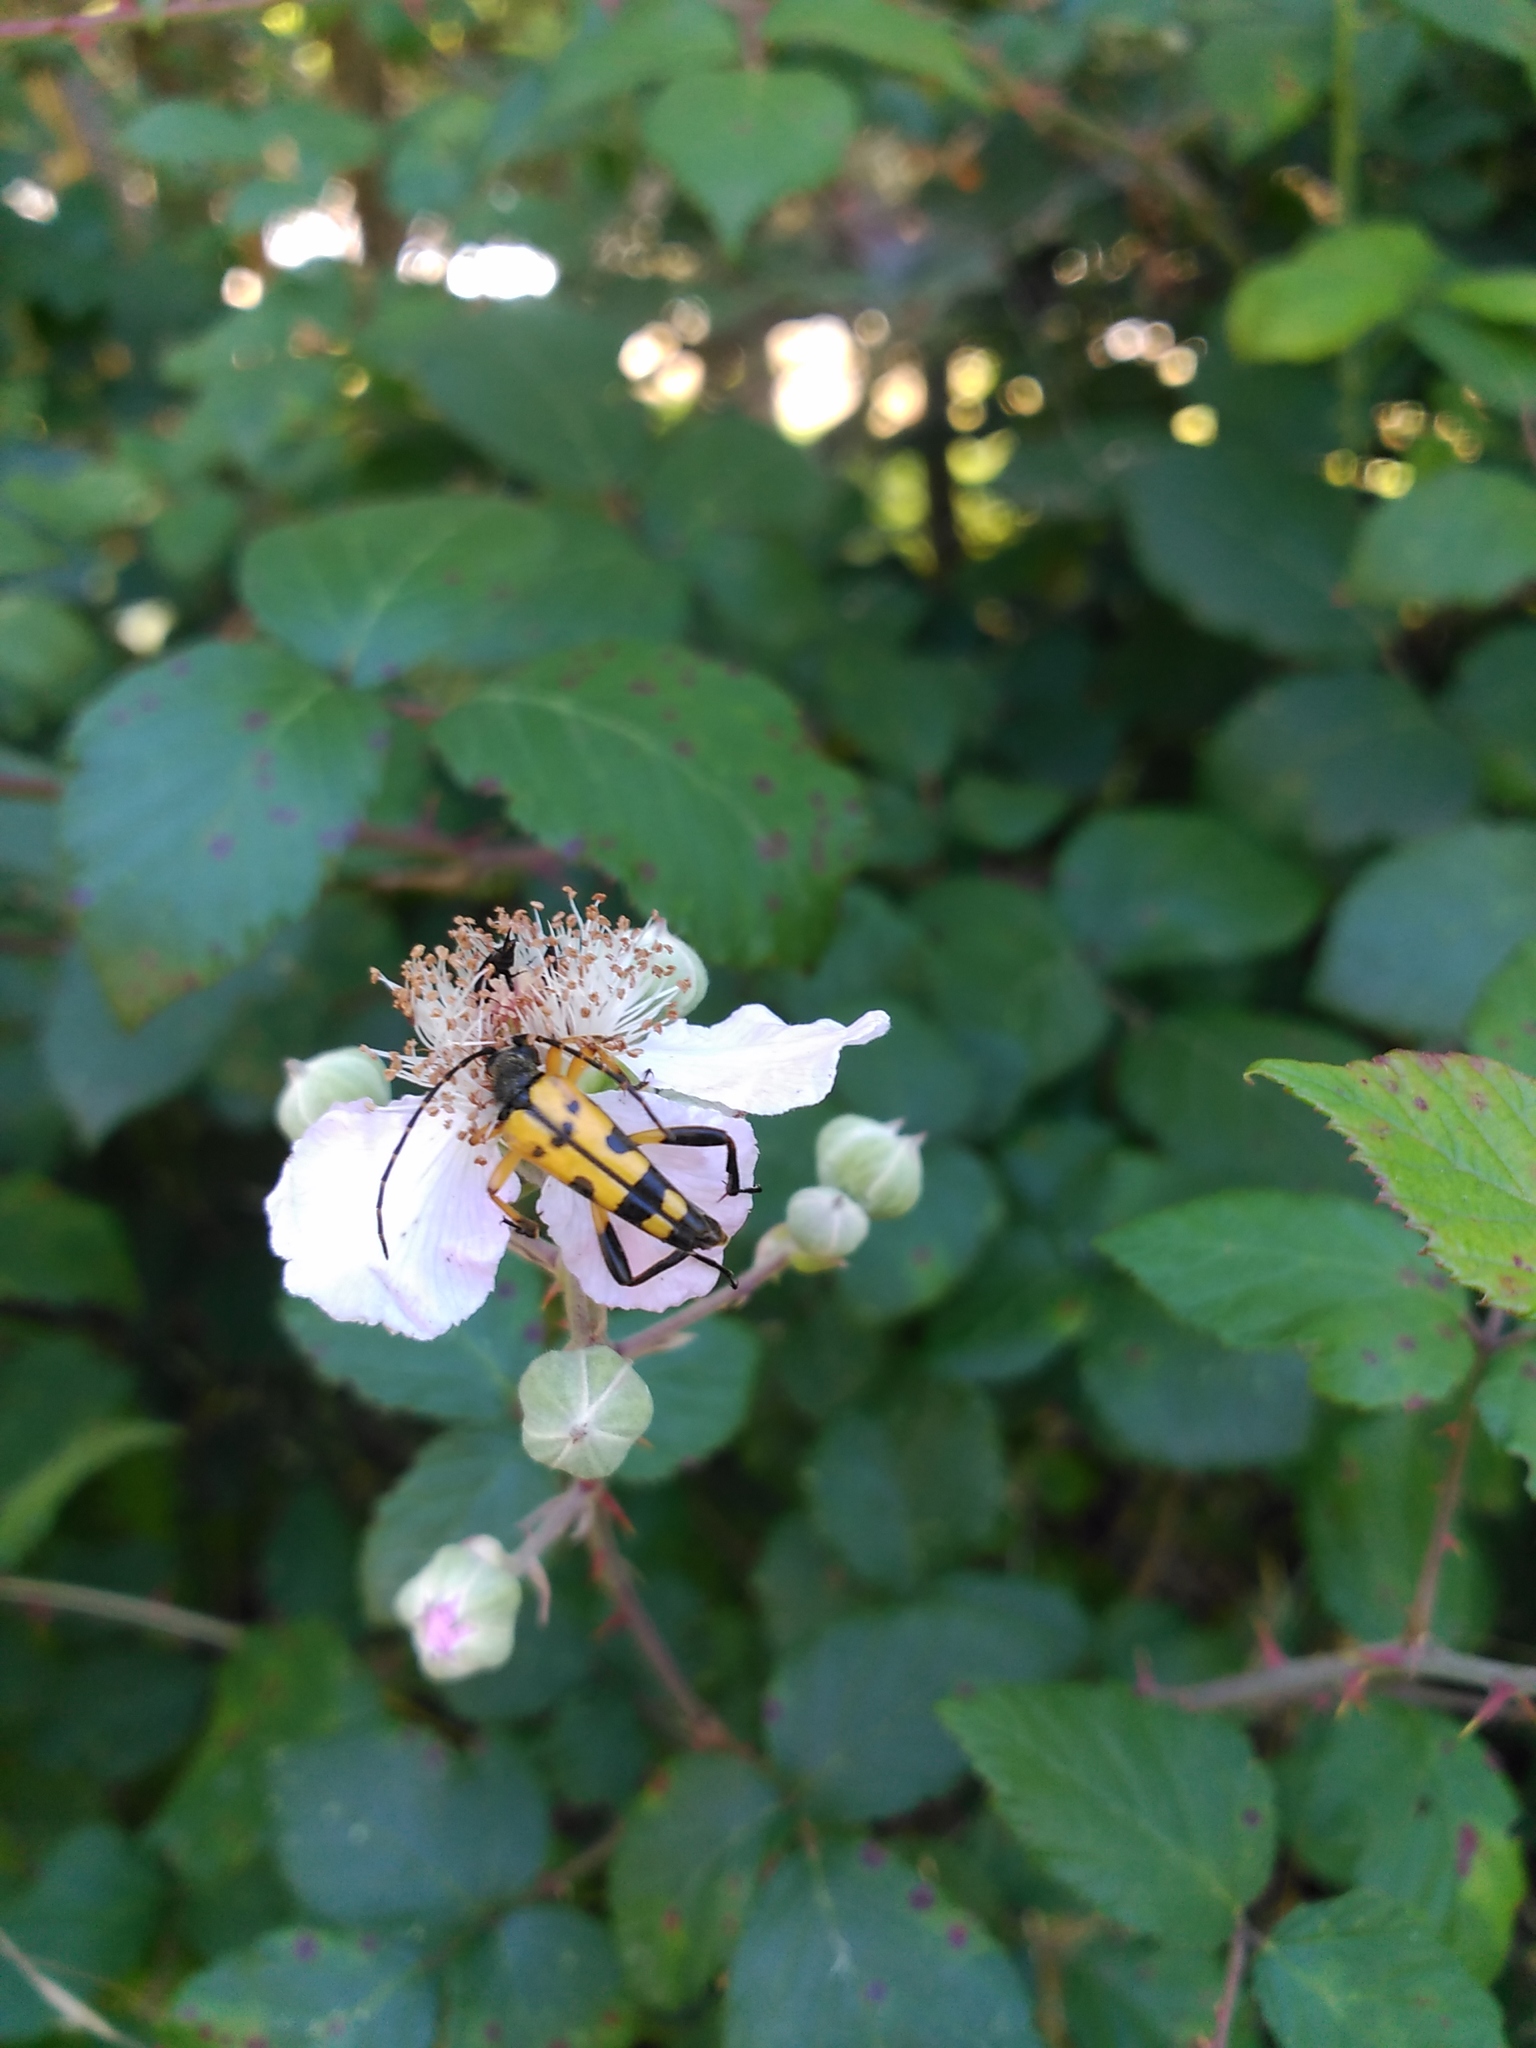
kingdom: Animalia
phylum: Arthropoda
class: Insecta
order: Coleoptera
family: Cerambycidae
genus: Rutpela
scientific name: Rutpela maculata
